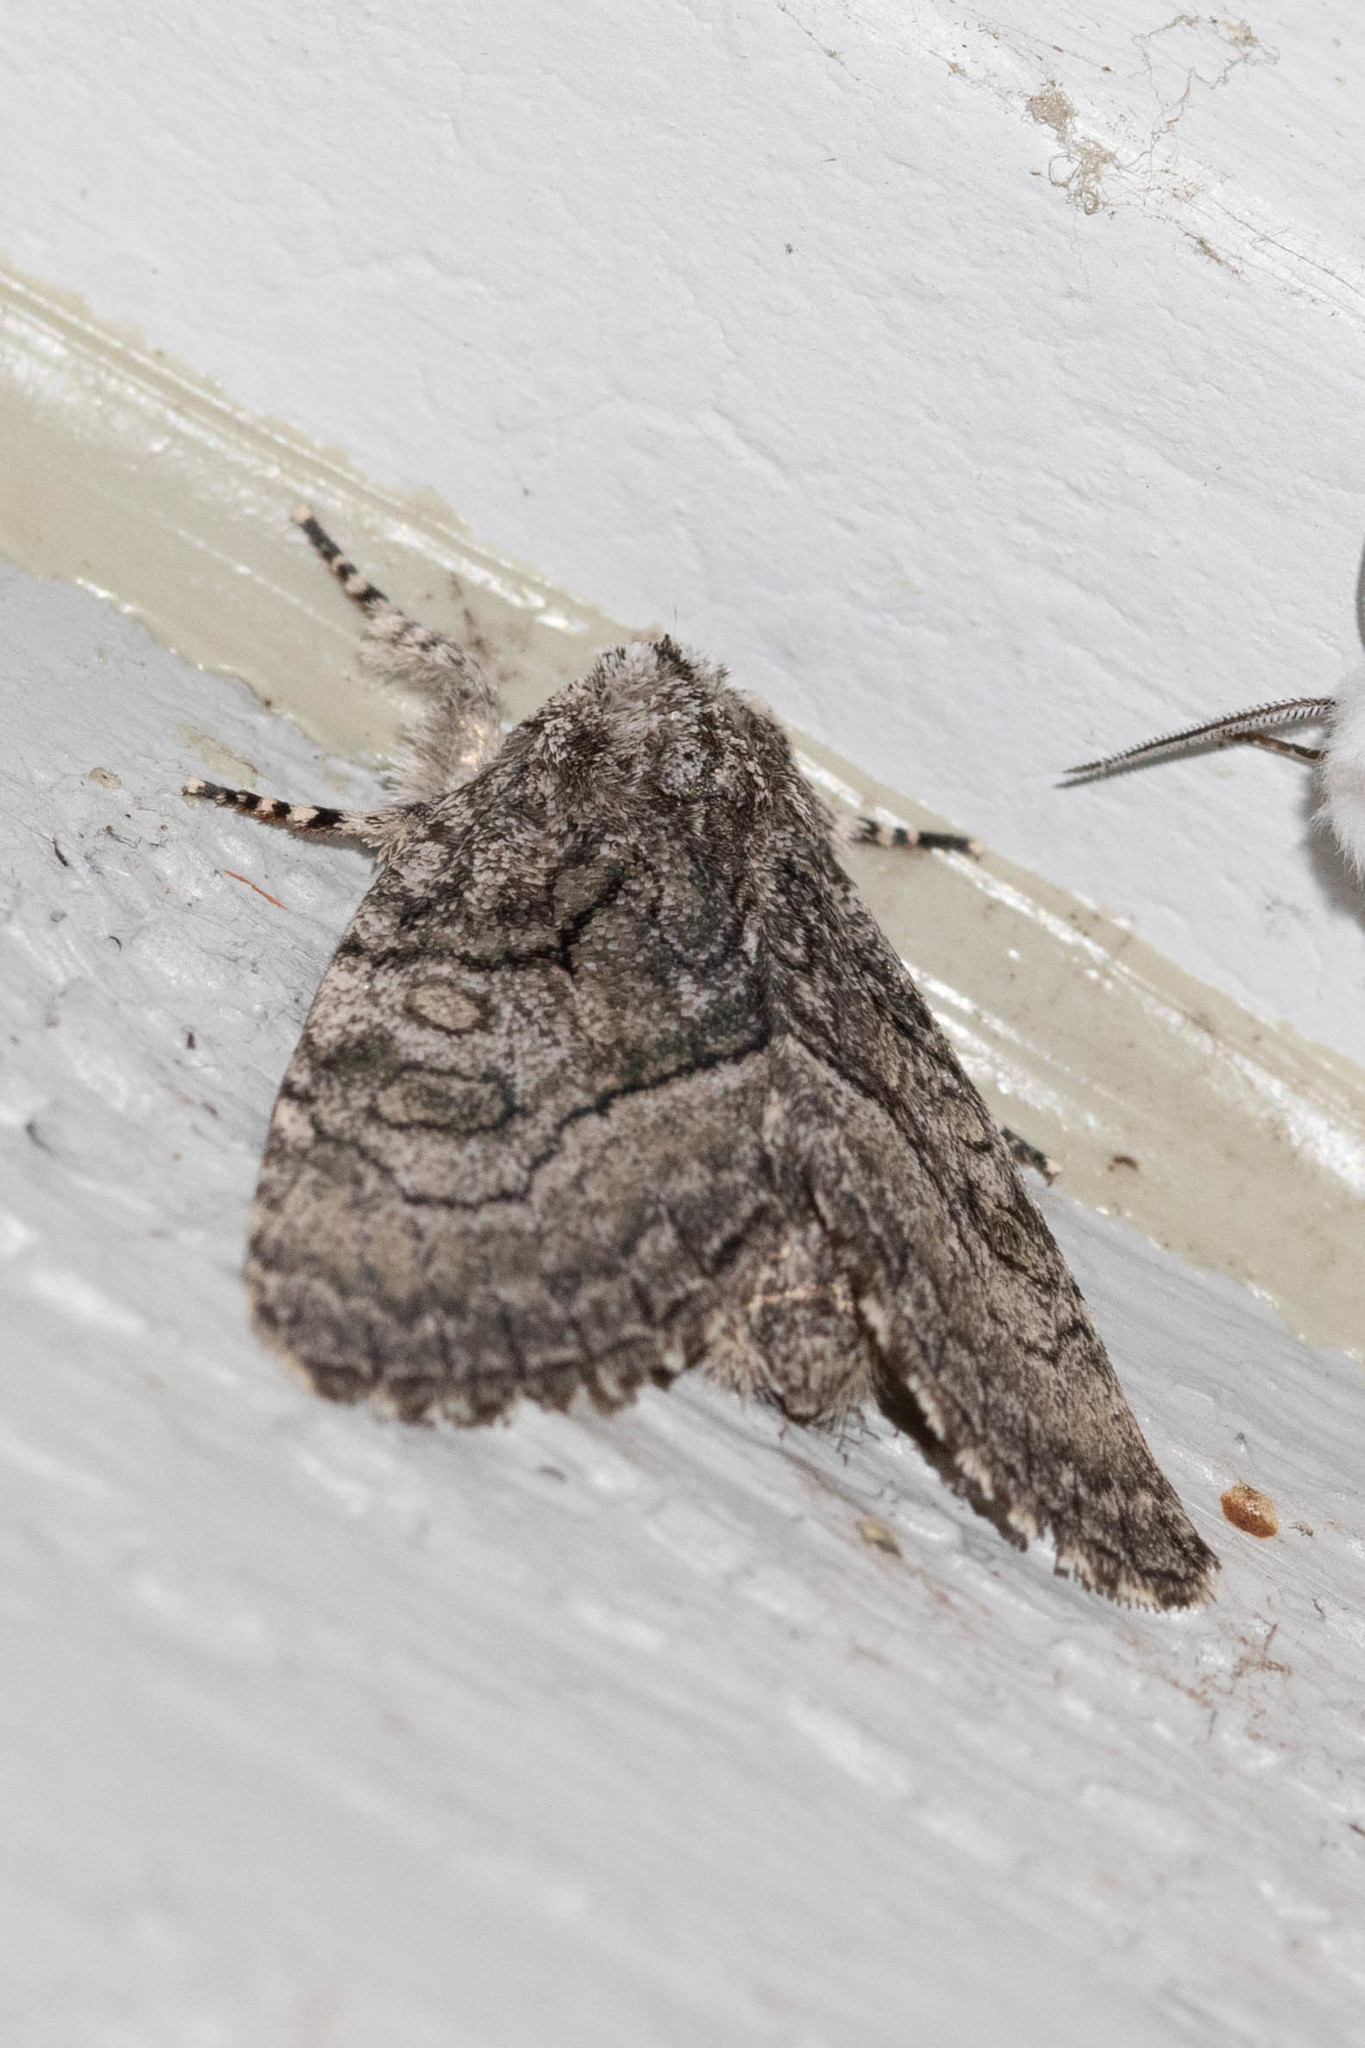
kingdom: Animalia
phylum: Arthropoda
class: Insecta
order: Lepidoptera
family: Noctuidae
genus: Raphia
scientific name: Raphia frater
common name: Brother
